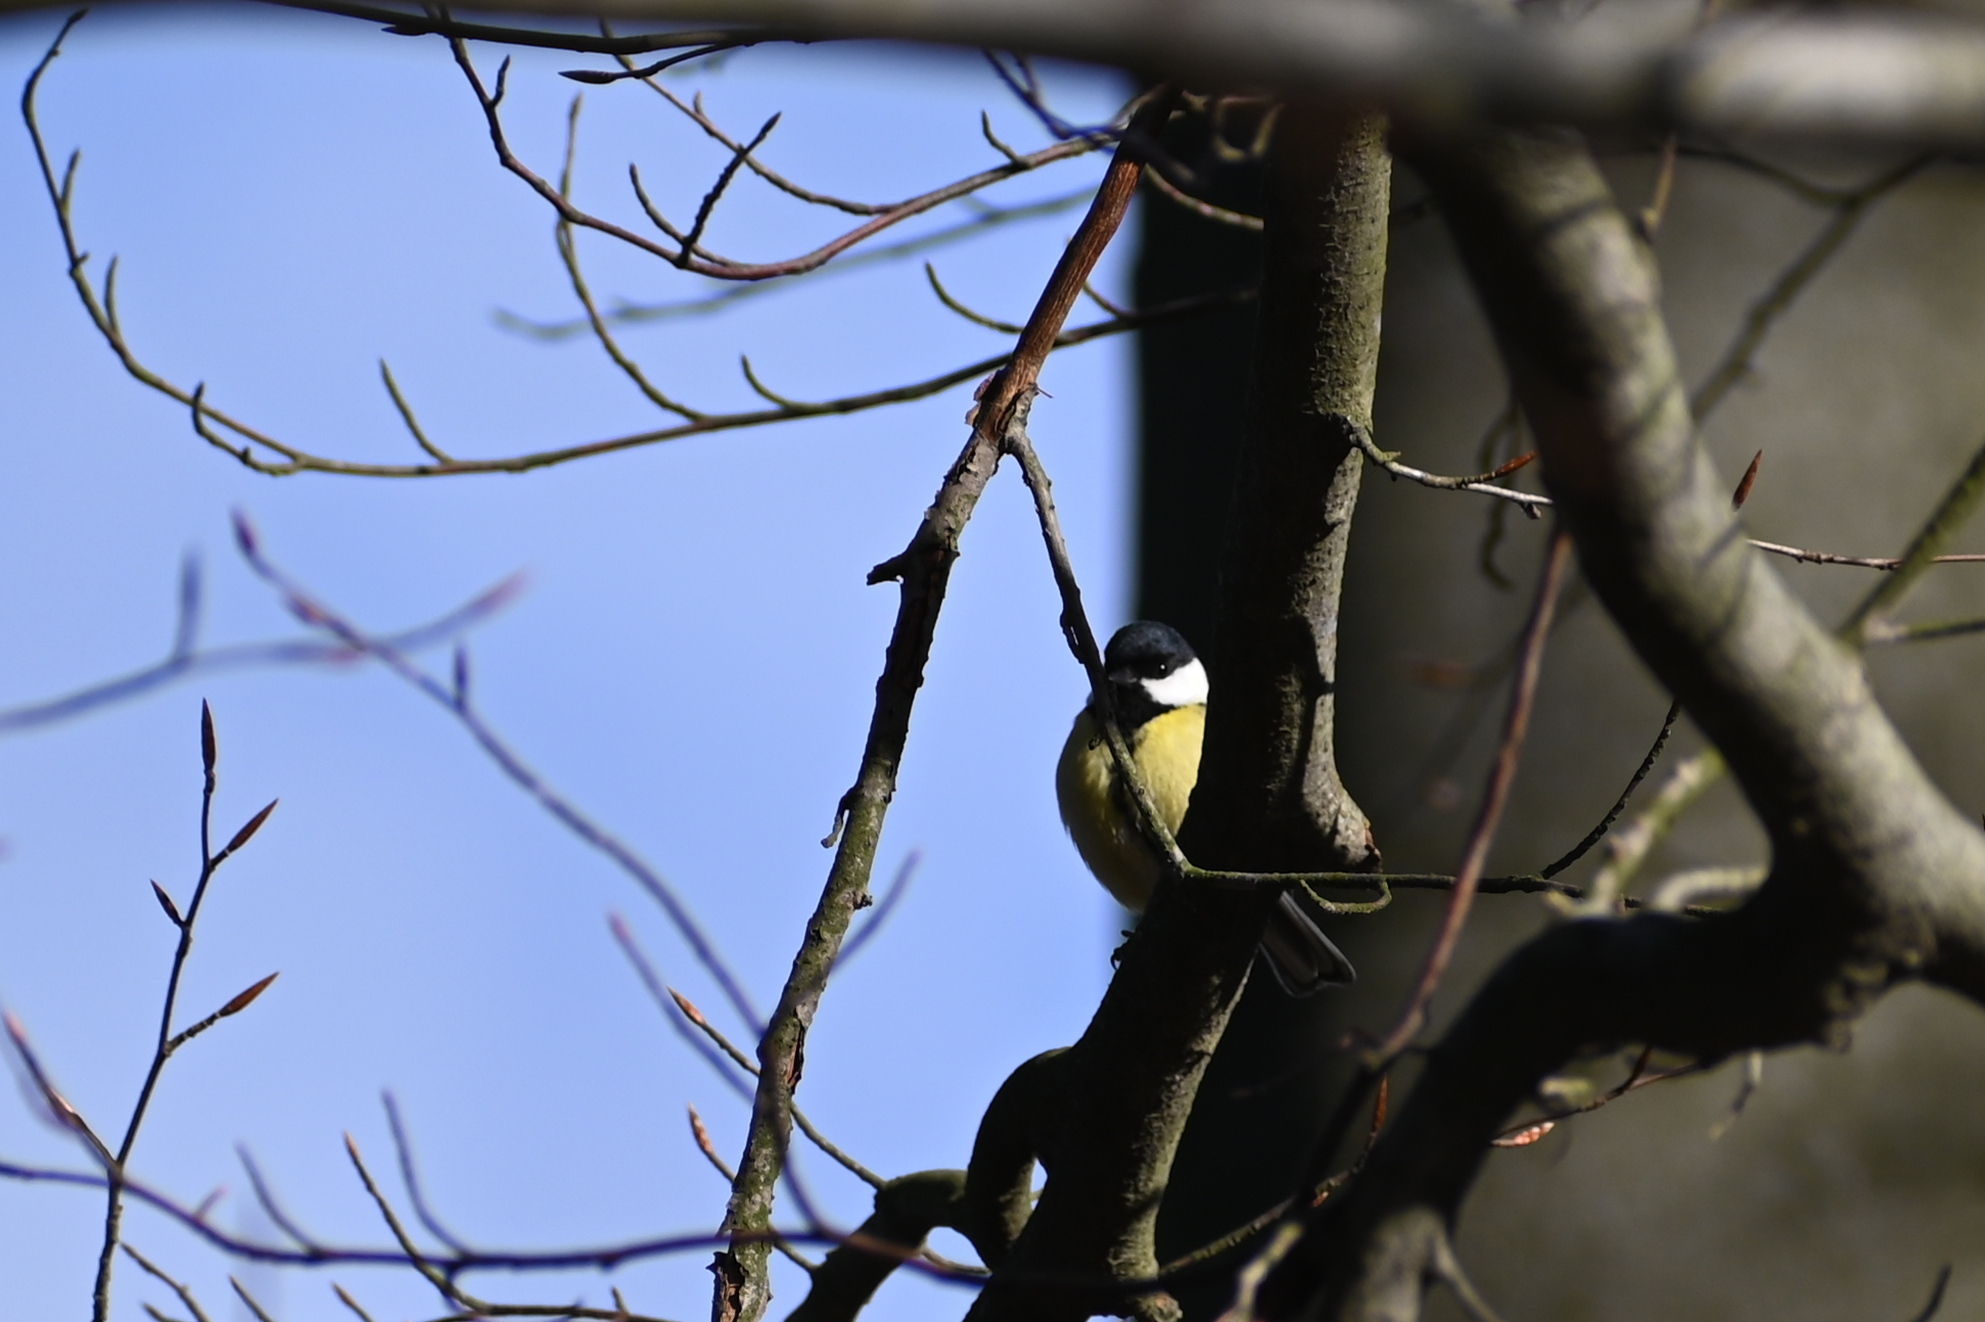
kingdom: Animalia
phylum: Chordata
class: Aves
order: Passeriformes
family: Paridae
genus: Parus
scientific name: Parus major
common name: Great tit
